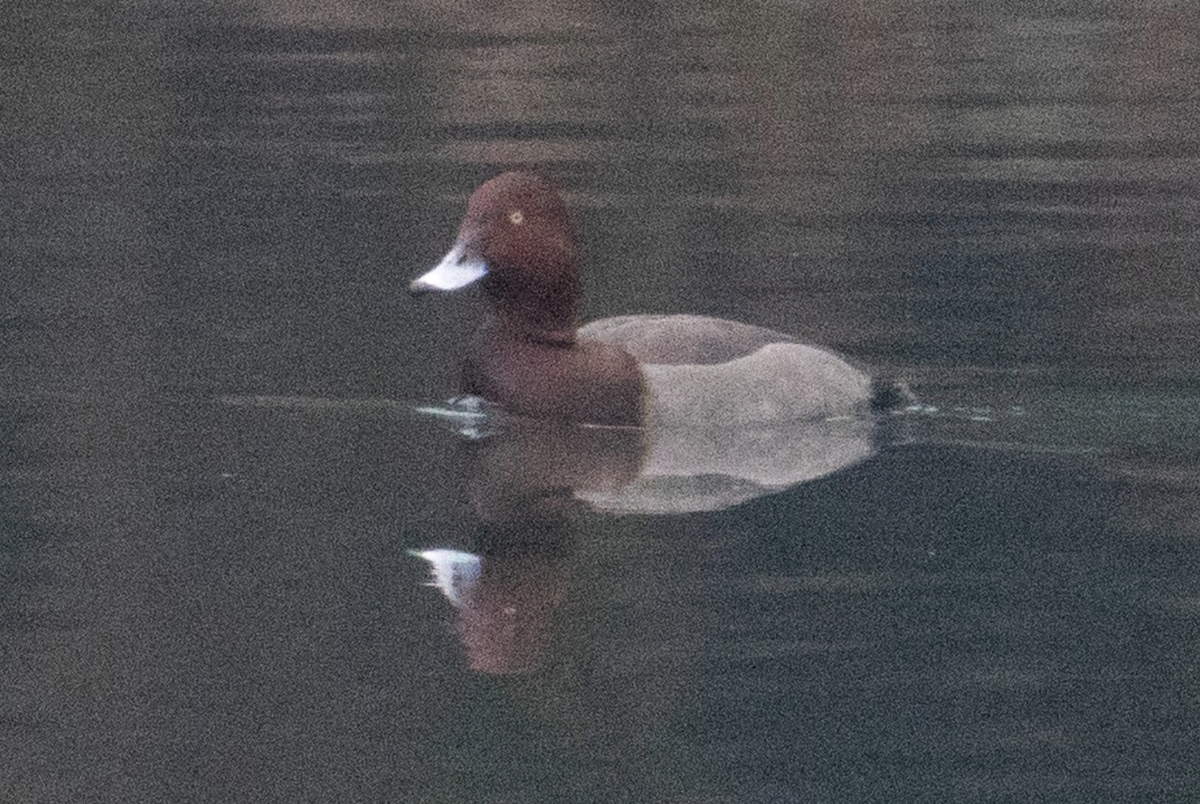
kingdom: Animalia
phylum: Chordata
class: Aves
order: Anseriformes
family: Anatidae
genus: Aythya
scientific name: Aythya
